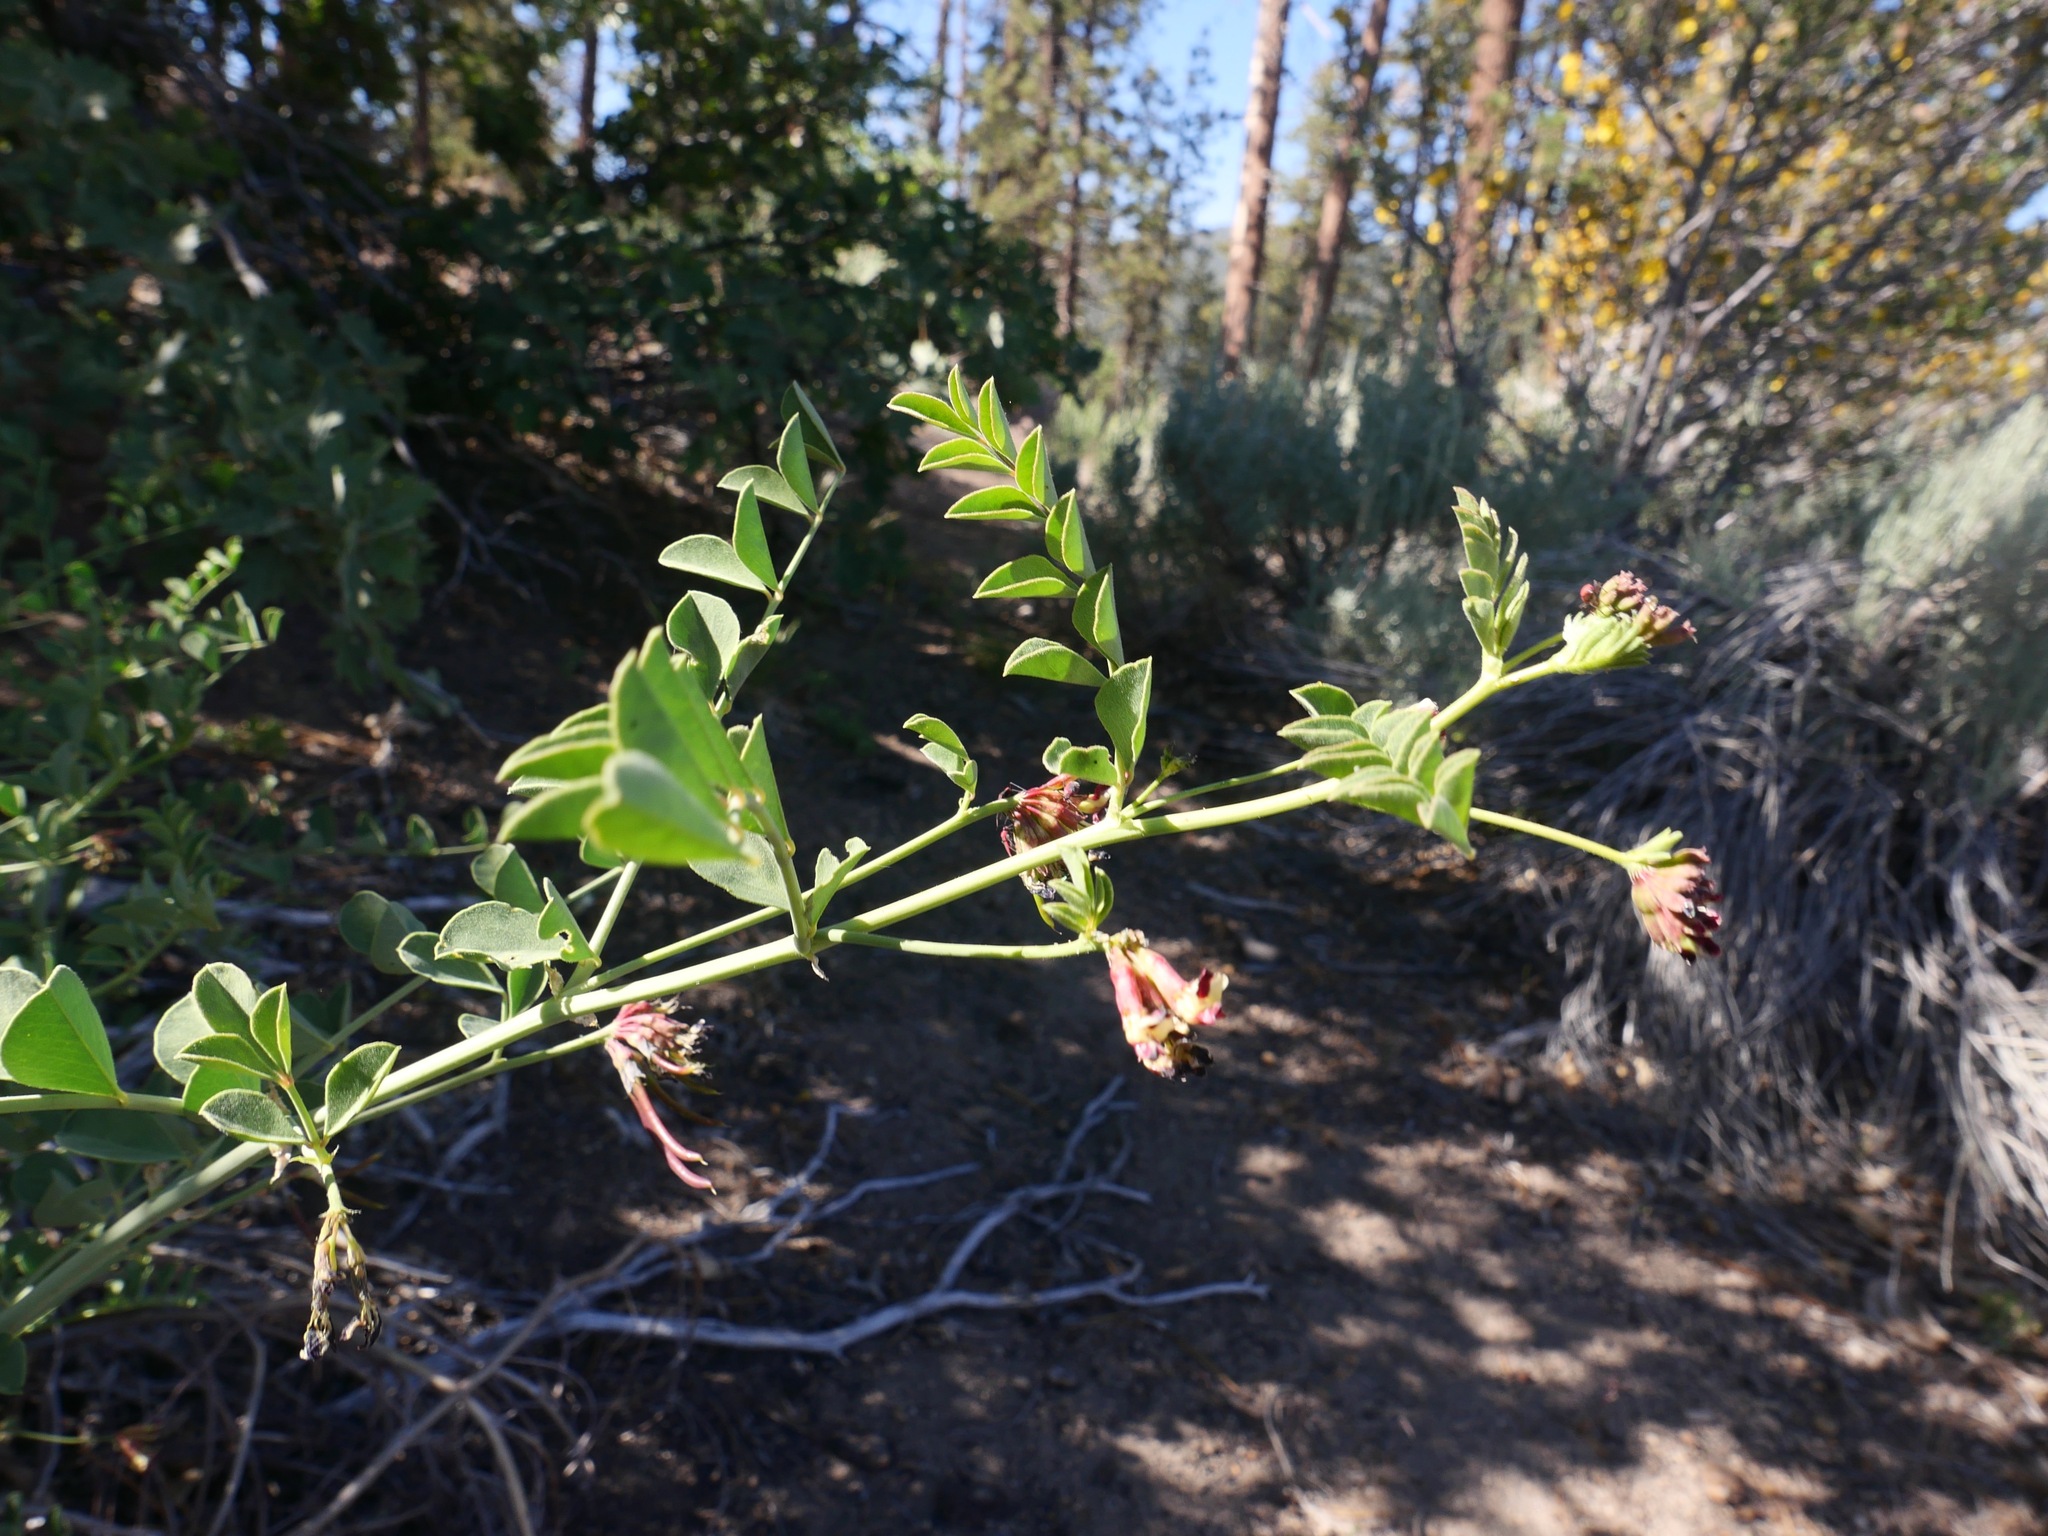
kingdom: Plantae
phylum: Tracheophyta
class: Magnoliopsida
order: Fabales
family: Fabaceae
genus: Hosackia
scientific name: Hosackia crassifolia
